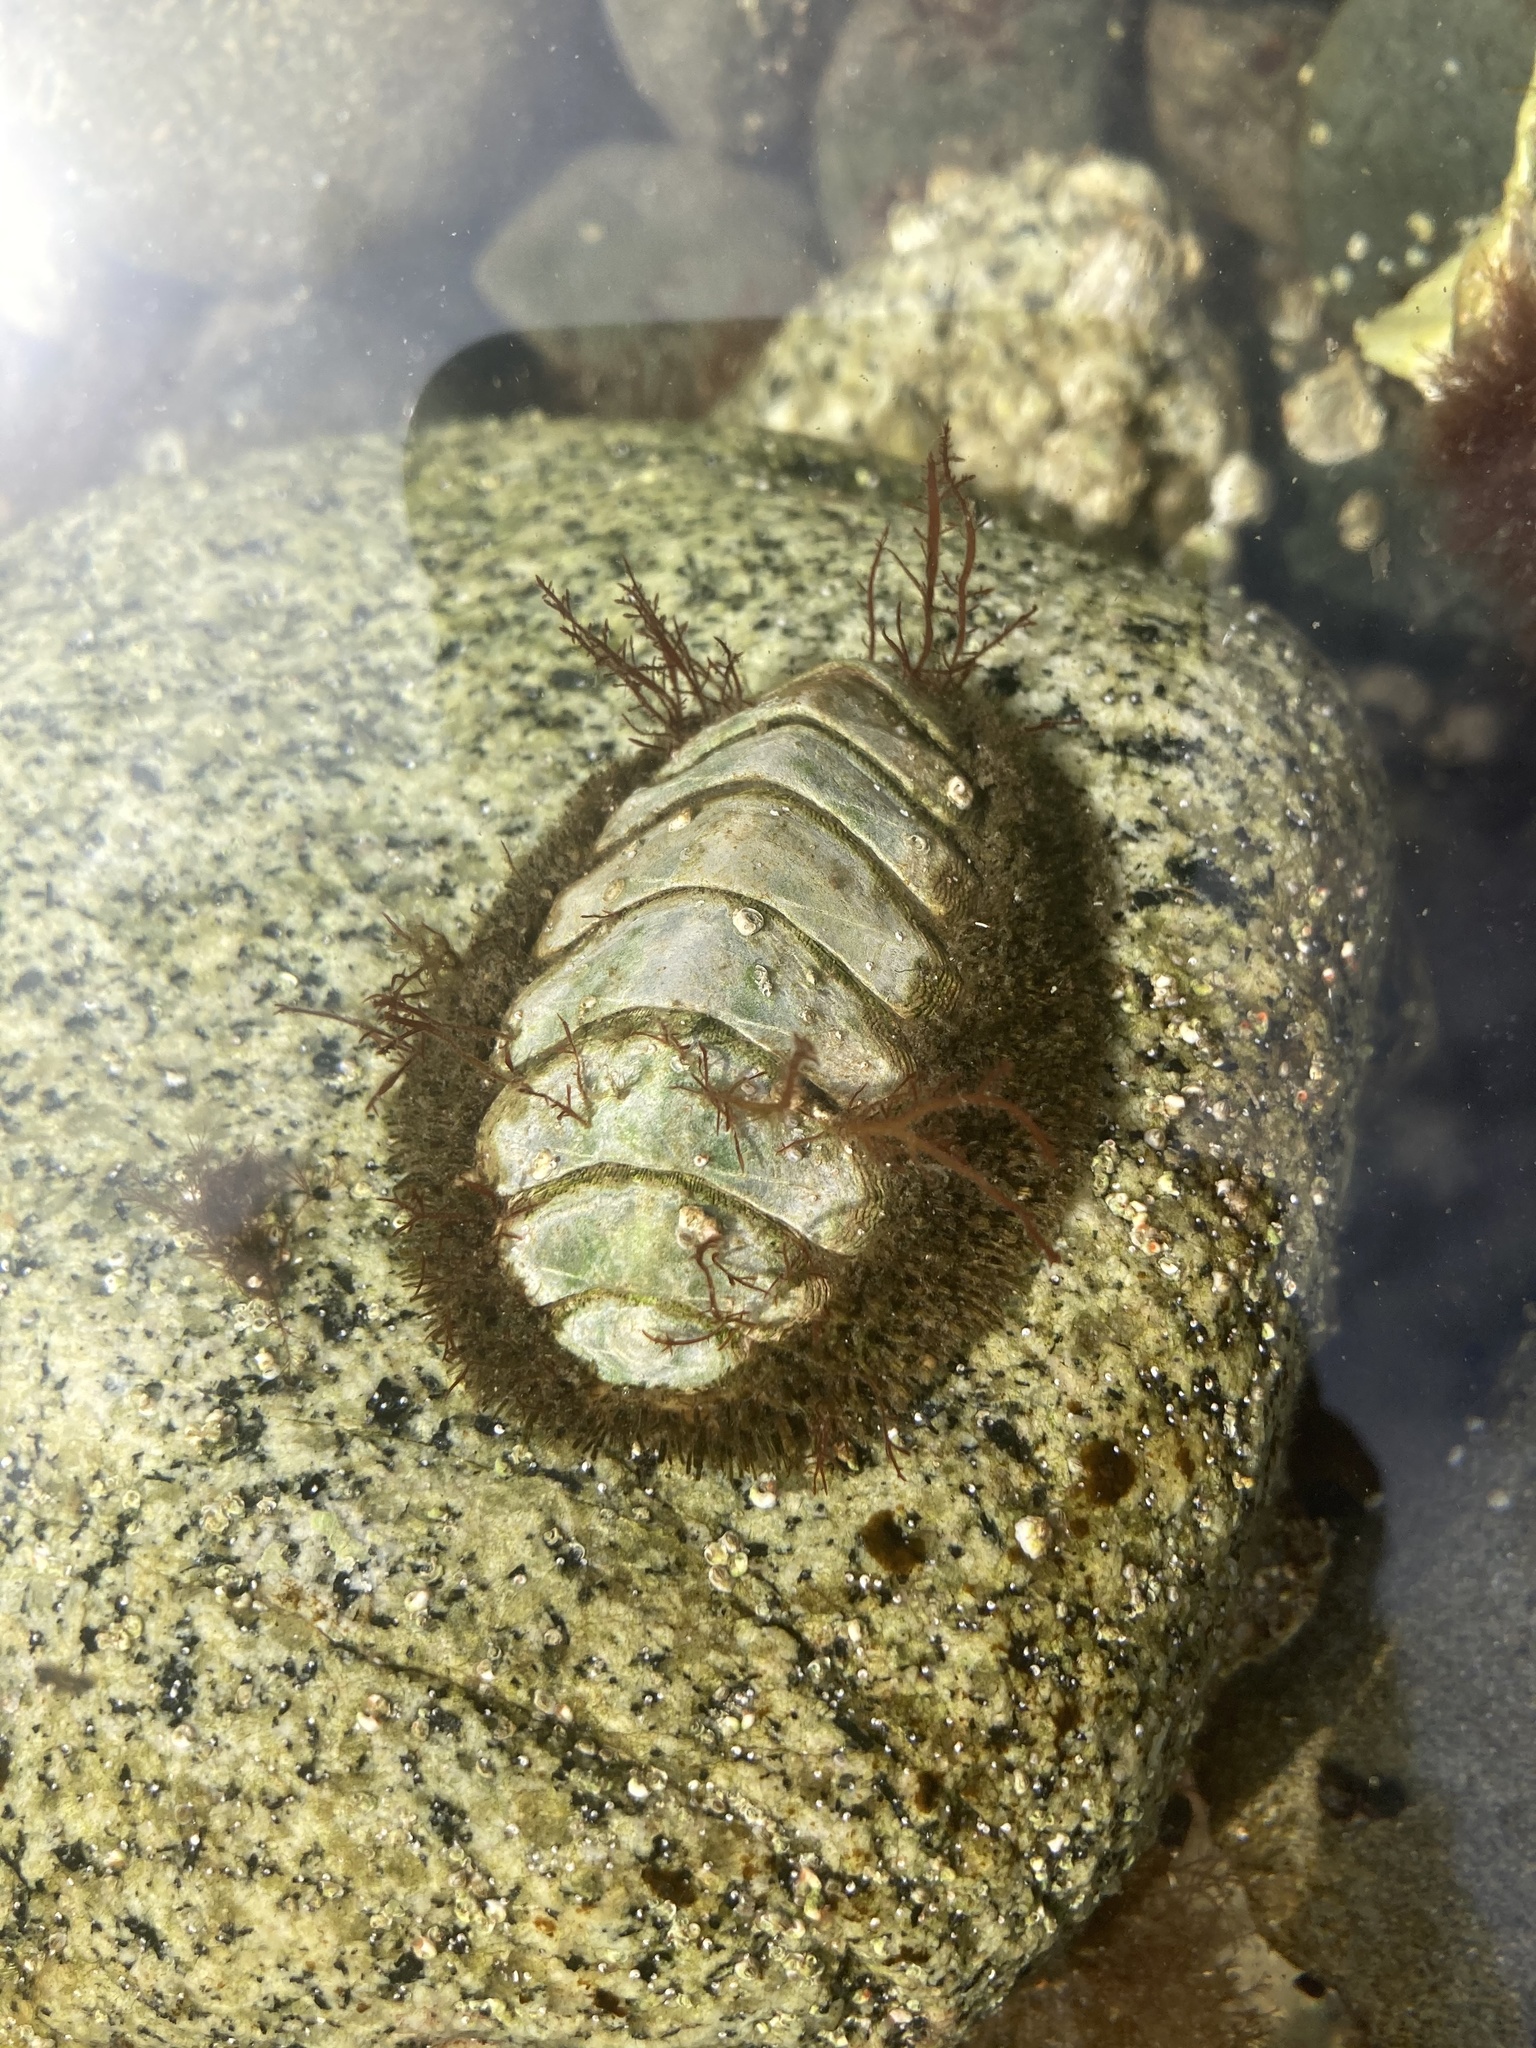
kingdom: Animalia
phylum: Mollusca
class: Polyplacophora
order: Chitonida
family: Mopaliidae
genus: Mopalia
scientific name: Mopalia muscosa
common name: Mossy chiton
